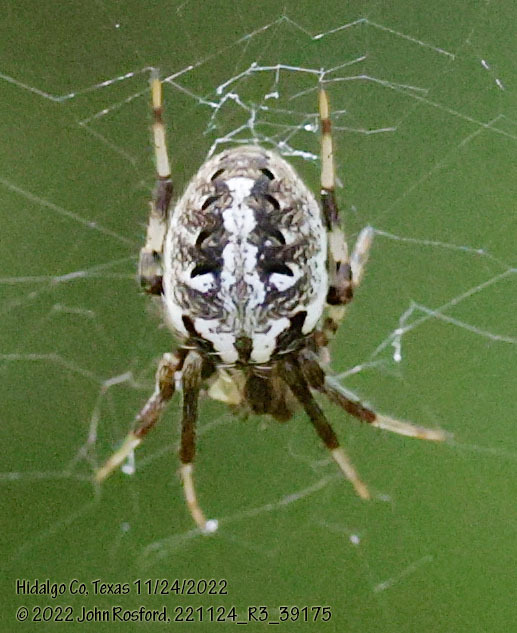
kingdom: Animalia
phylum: Arthropoda
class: Arachnida
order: Araneae
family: Araneidae
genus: Neoscona
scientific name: Neoscona arabesca
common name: Orb weavers
